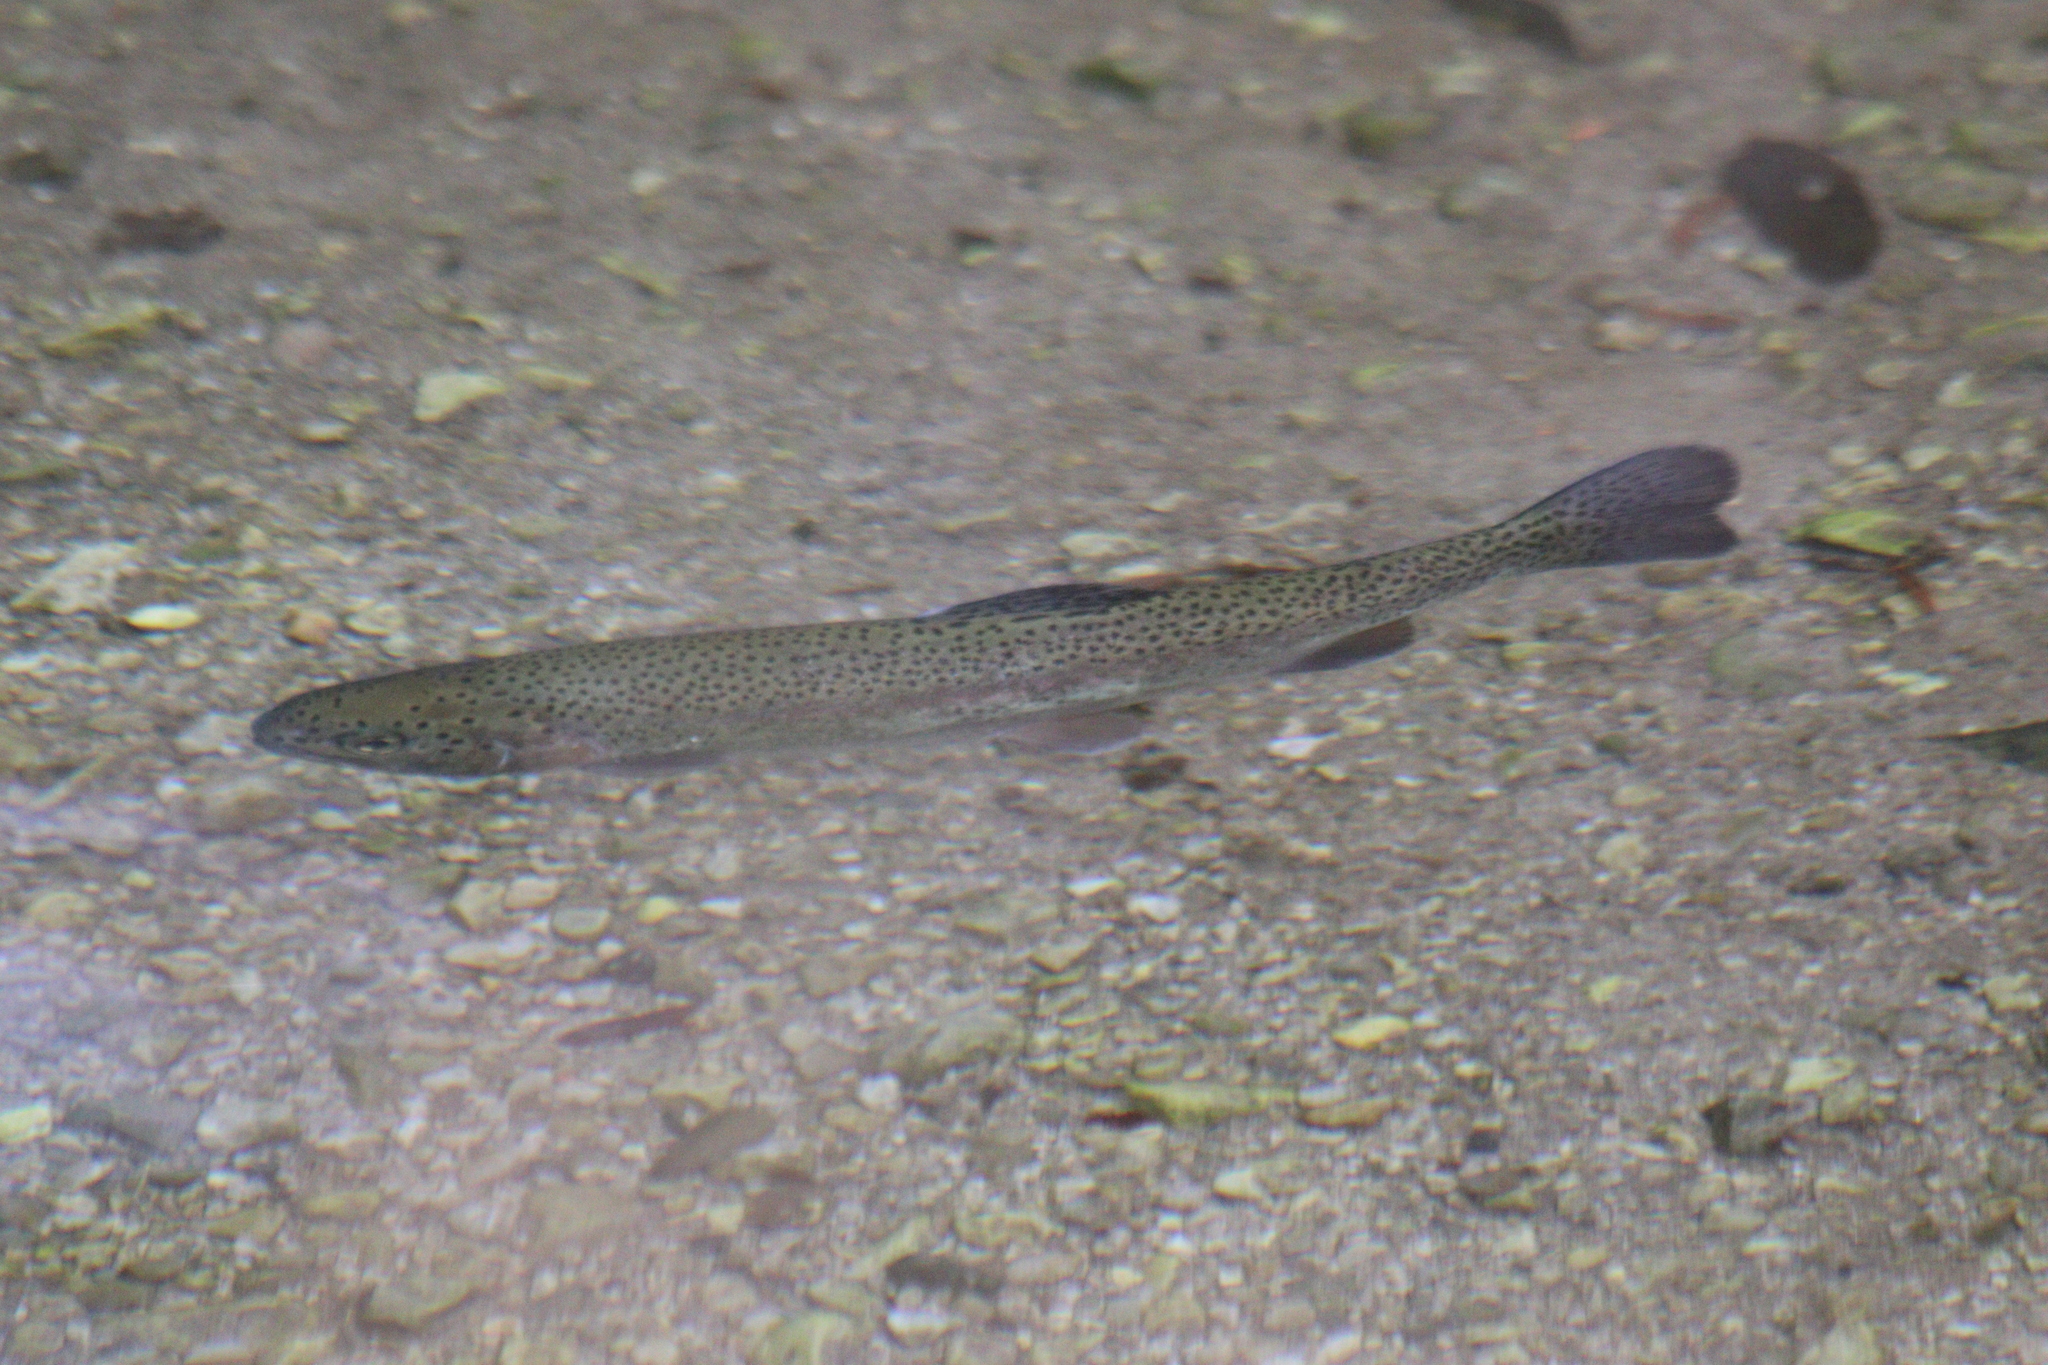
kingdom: Animalia
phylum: Chordata
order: Salmoniformes
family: Salmonidae
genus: Oncorhynchus
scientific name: Oncorhynchus mykiss
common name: Rainbow trout
